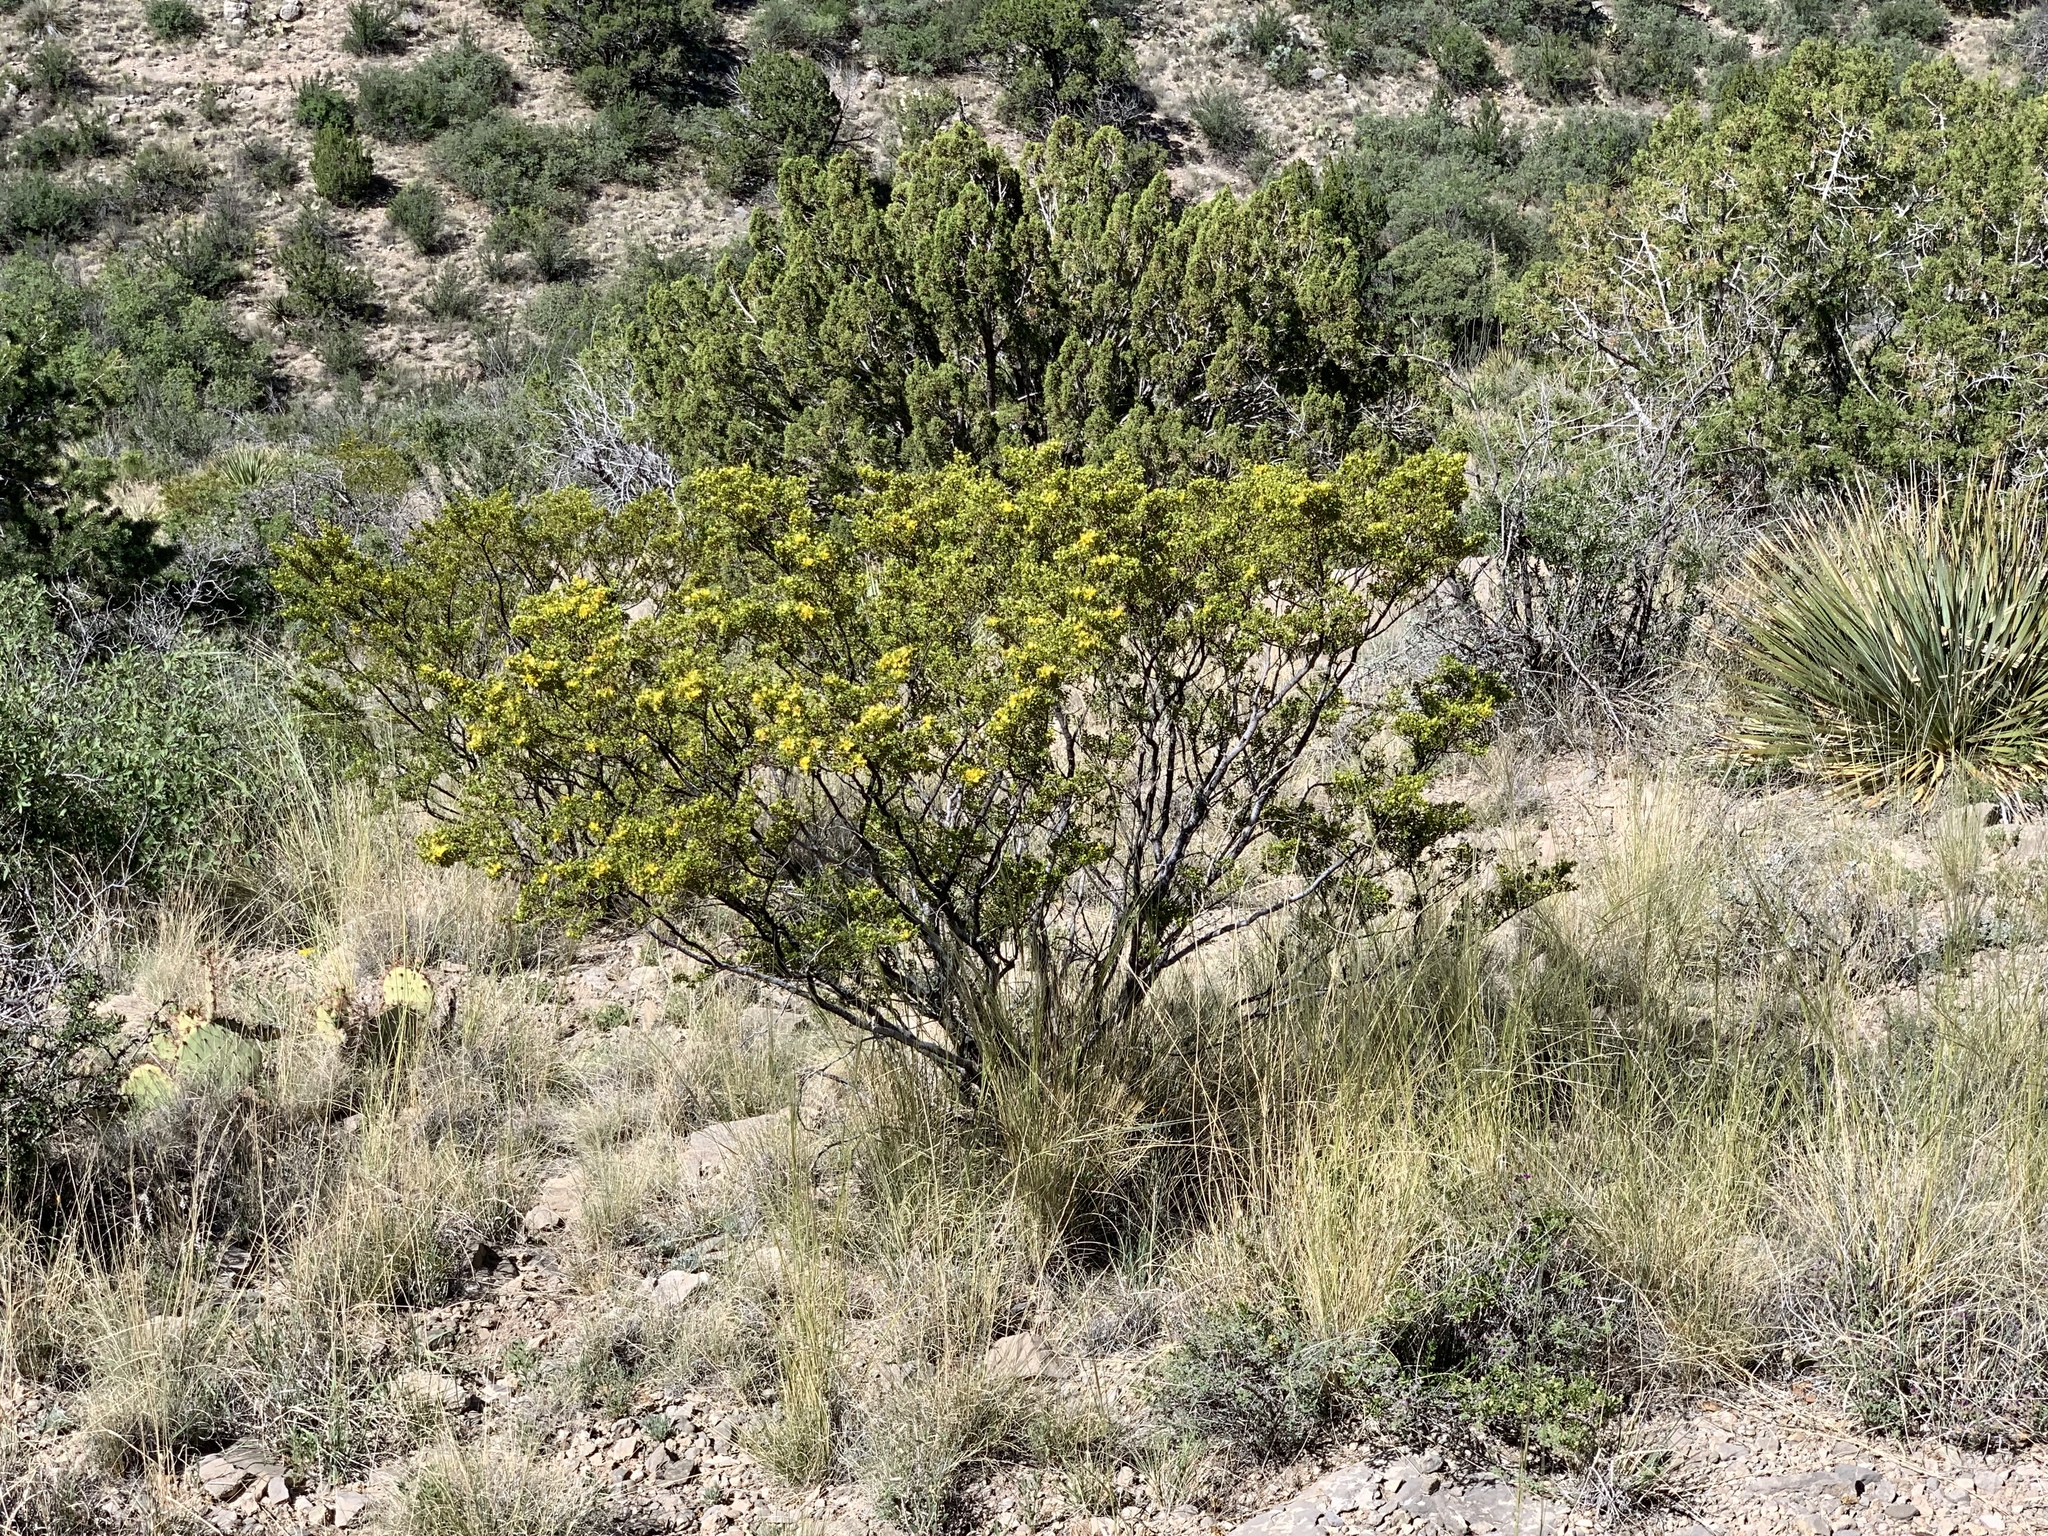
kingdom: Plantae
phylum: Tracheophyta
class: Magnoliopsida
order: Zygophyllales
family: Zygophyllaceae
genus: Larrea
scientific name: Larrea tridentata
